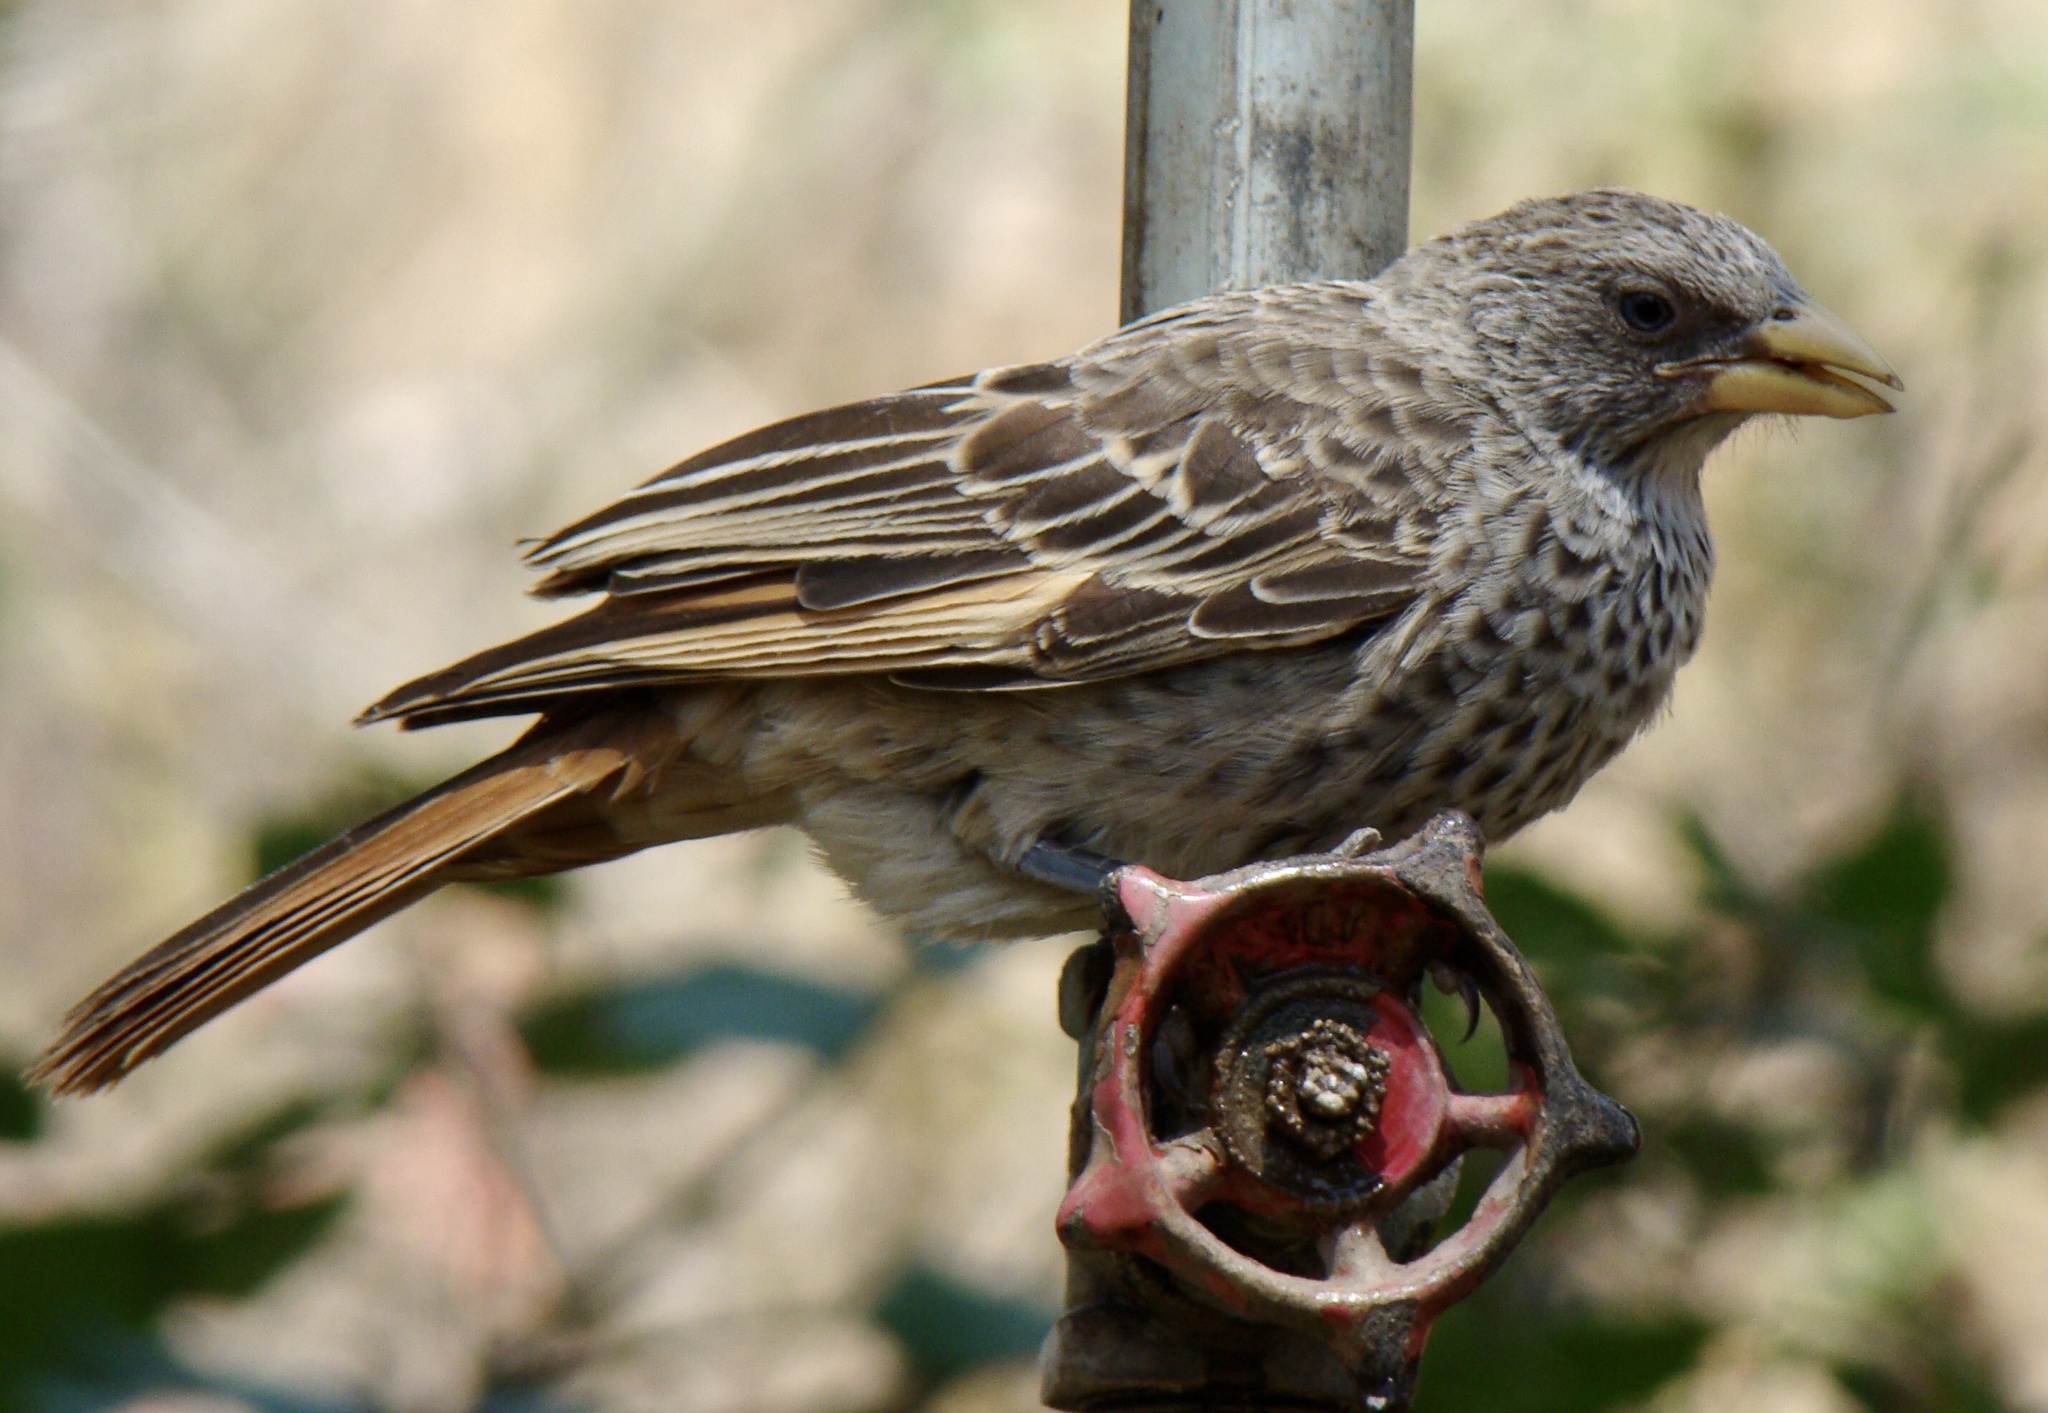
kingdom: Animalia
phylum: Chordata
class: Aves
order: Passeriformes
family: Passeridae
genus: Histurgops
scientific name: Histurgops ruficauda
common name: Rufous-tailed weaver
